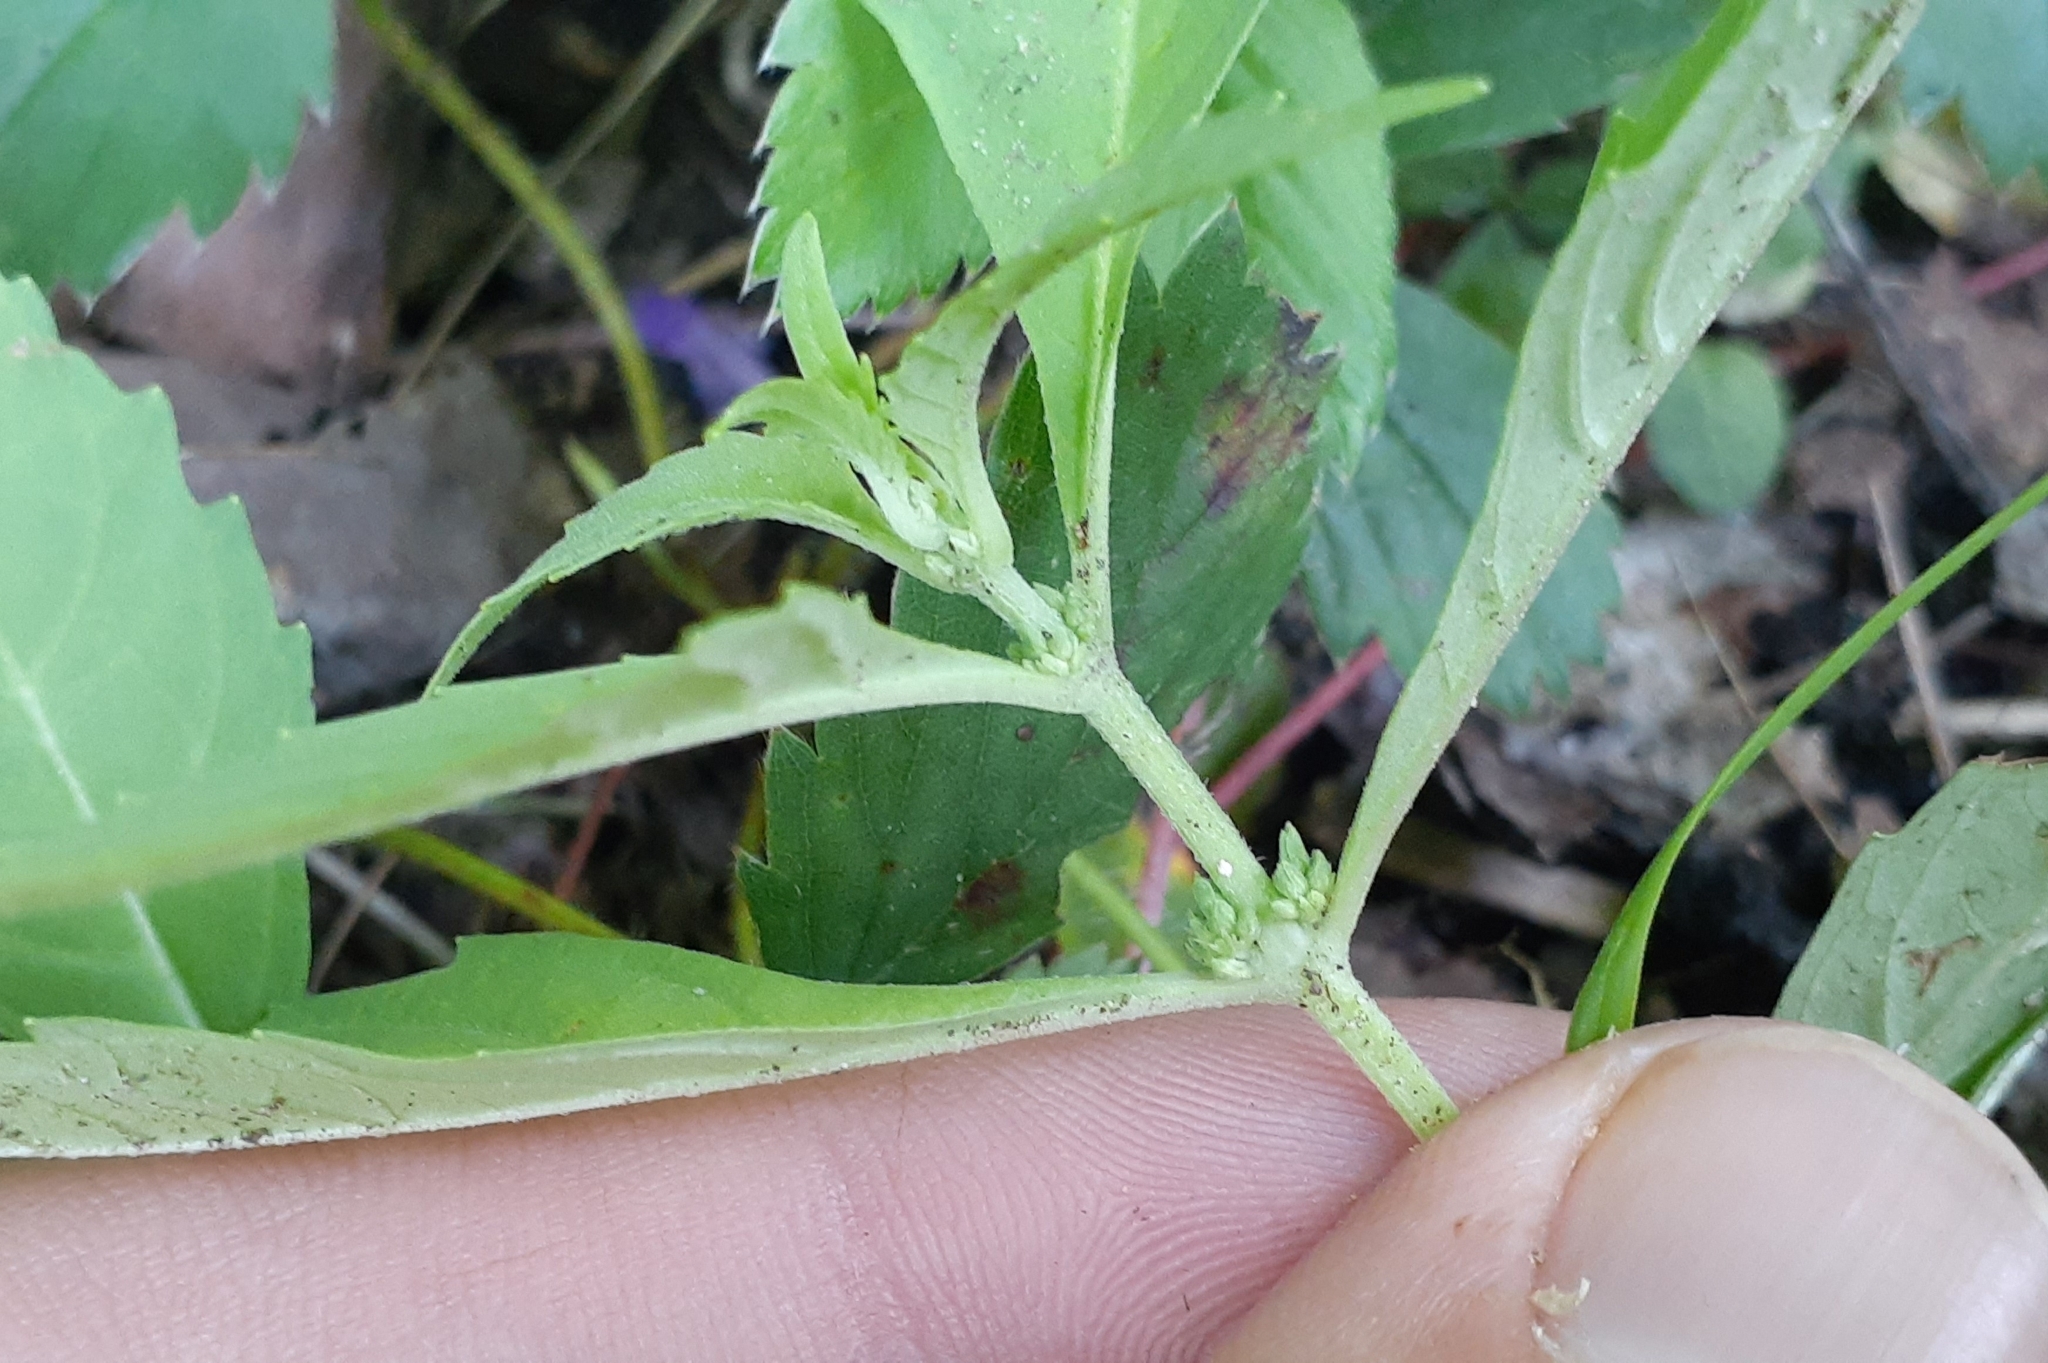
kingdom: Plantae
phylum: Tracheophyta
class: Magnoliopsida
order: Lamiales
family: Lamiaceae
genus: Lycopus
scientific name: Lycopus uniflorus
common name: Northern bugleweed
